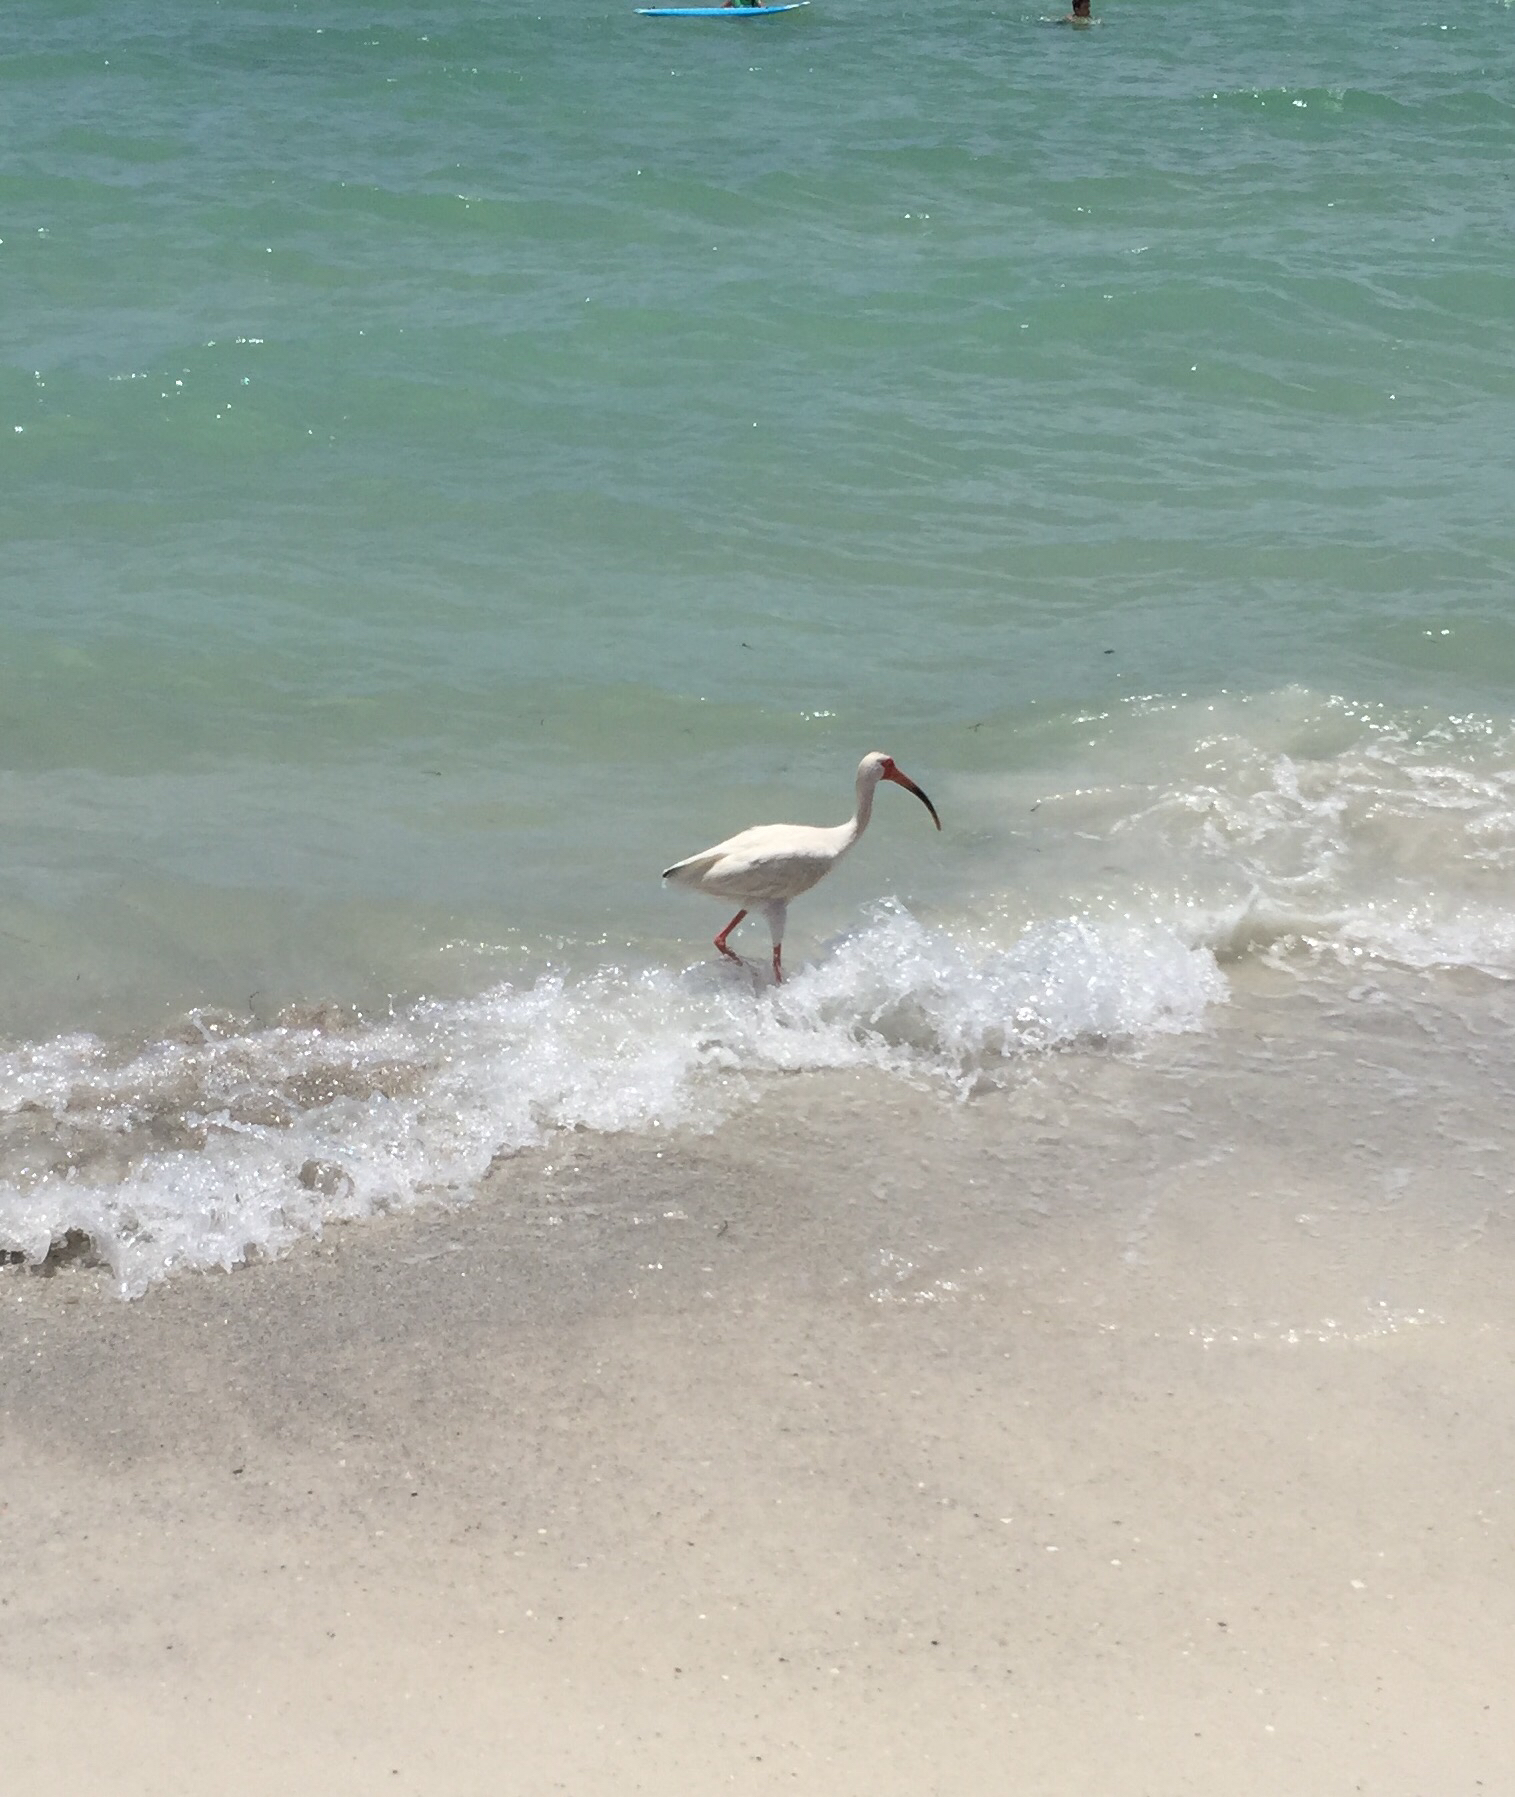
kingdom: Animalia
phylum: Chordata
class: Aves
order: Pelecaniformes
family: Threskiornithidae
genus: Eudocimus
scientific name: Eudocimus albus
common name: White ibis
